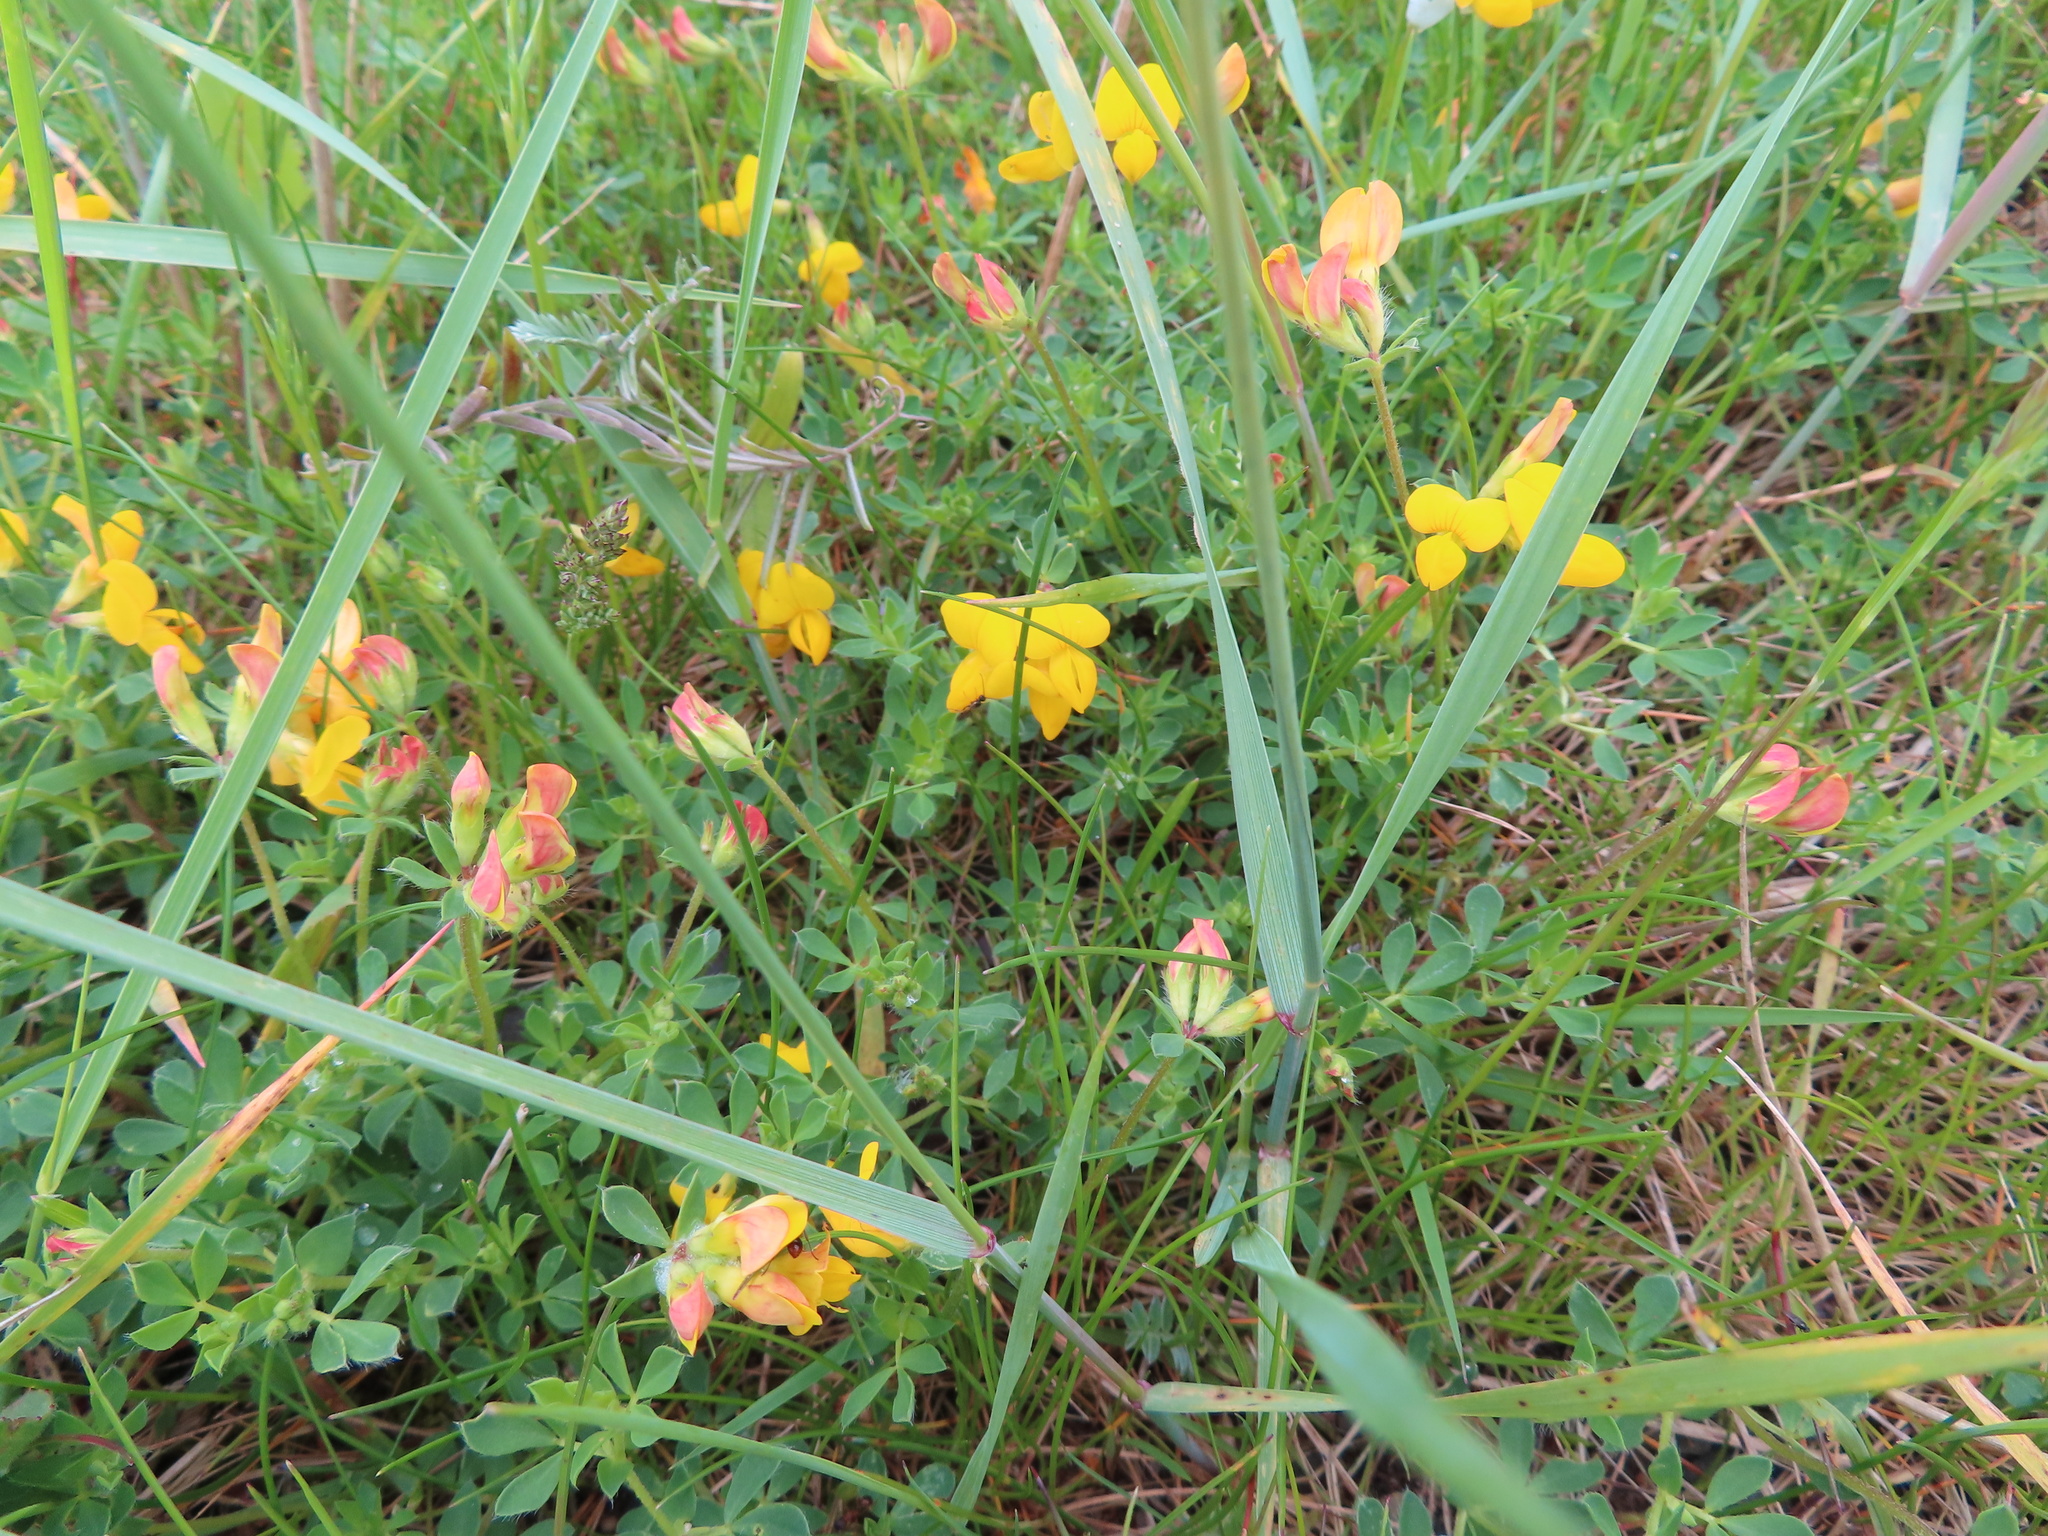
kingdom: Plantae
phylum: Tracheophyta
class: Magnoliopsida
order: Fabales
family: Fabaceae
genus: Lotus
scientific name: Lotus corniculatus
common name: Common bird's-foot-trefoil
